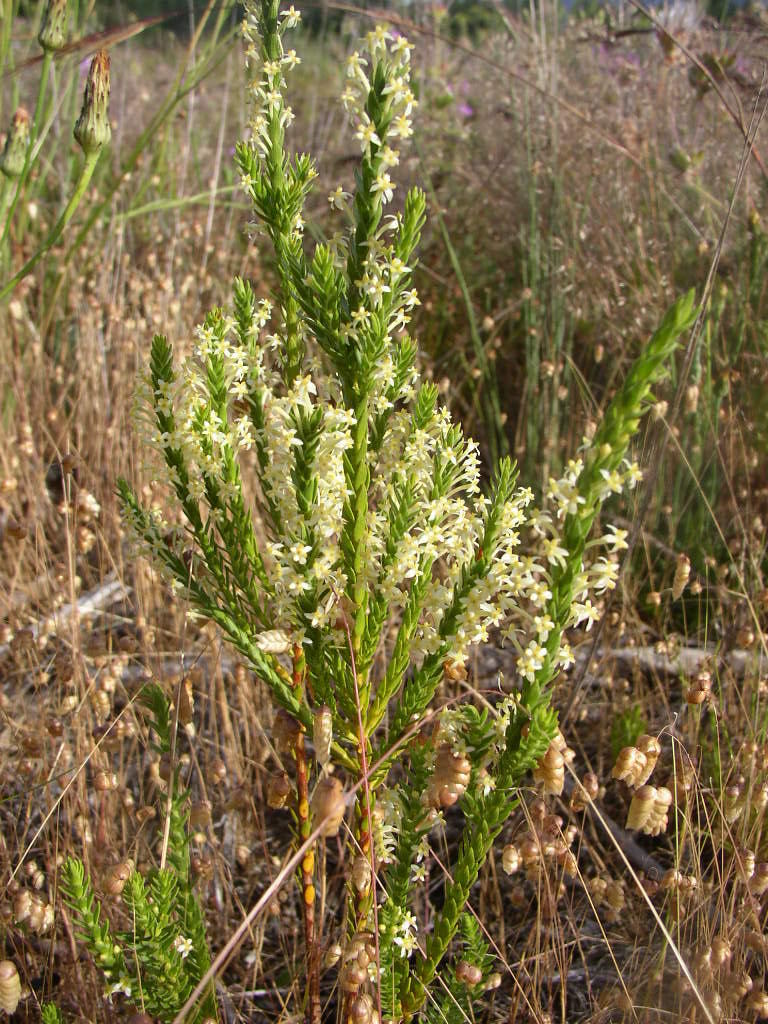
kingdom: Plantae
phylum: Tracheophyta
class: Magnoliopsida
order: Malvales
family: Thymelaeaceae
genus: Struthiola
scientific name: Struthiola striata
